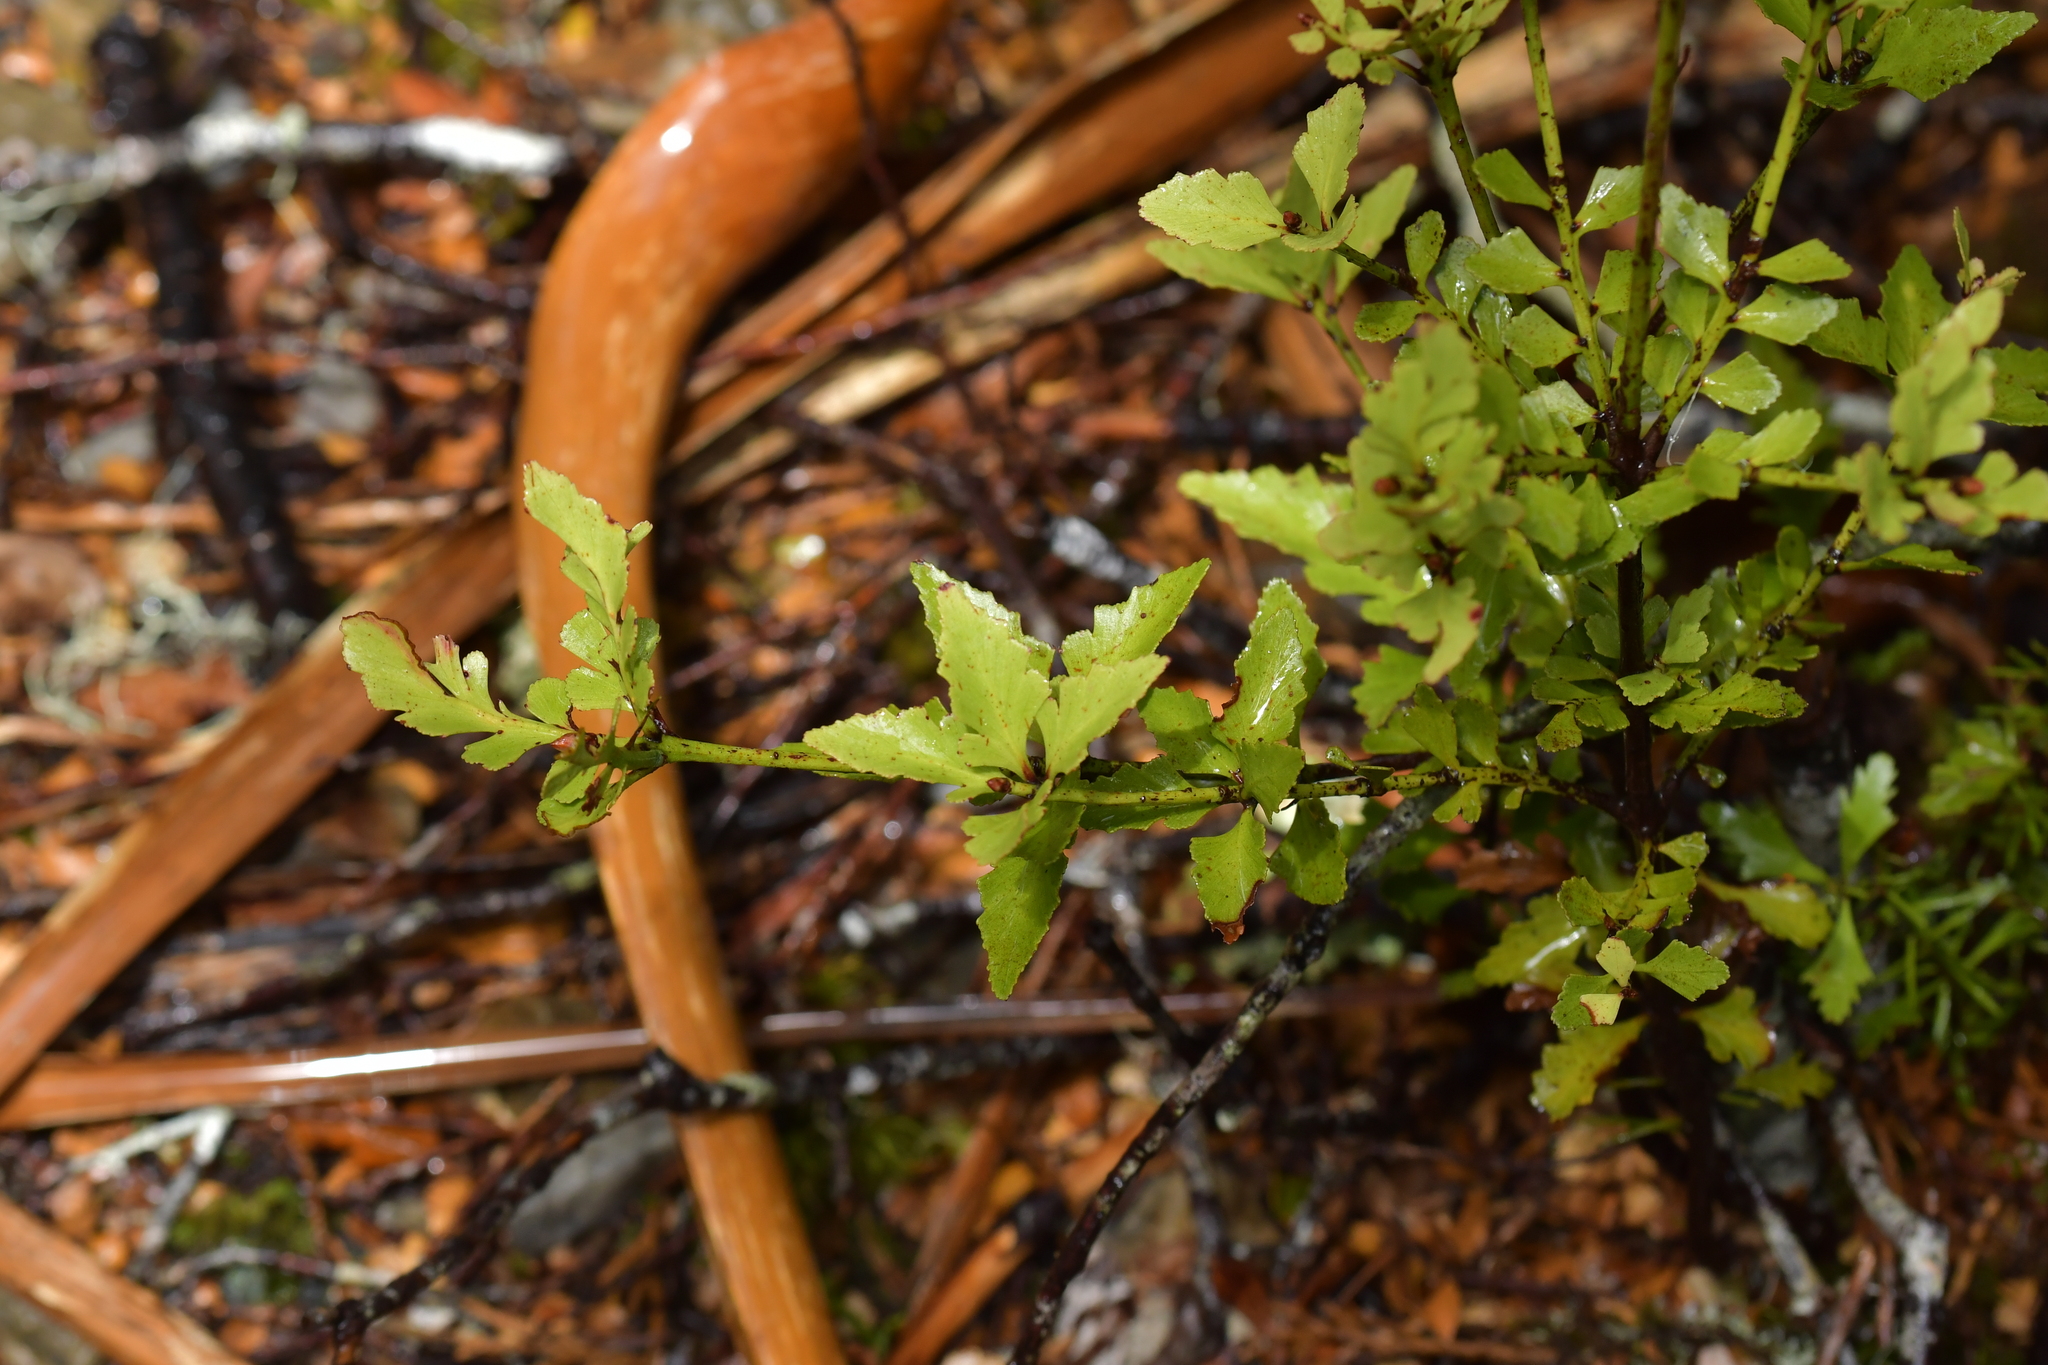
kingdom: Plantae
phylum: Tracheophyta
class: Pinopsida
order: Pinales
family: Phyllocladaceae
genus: Phyllocladus
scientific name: Phyllocladus trichomanoides
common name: Celery pine
